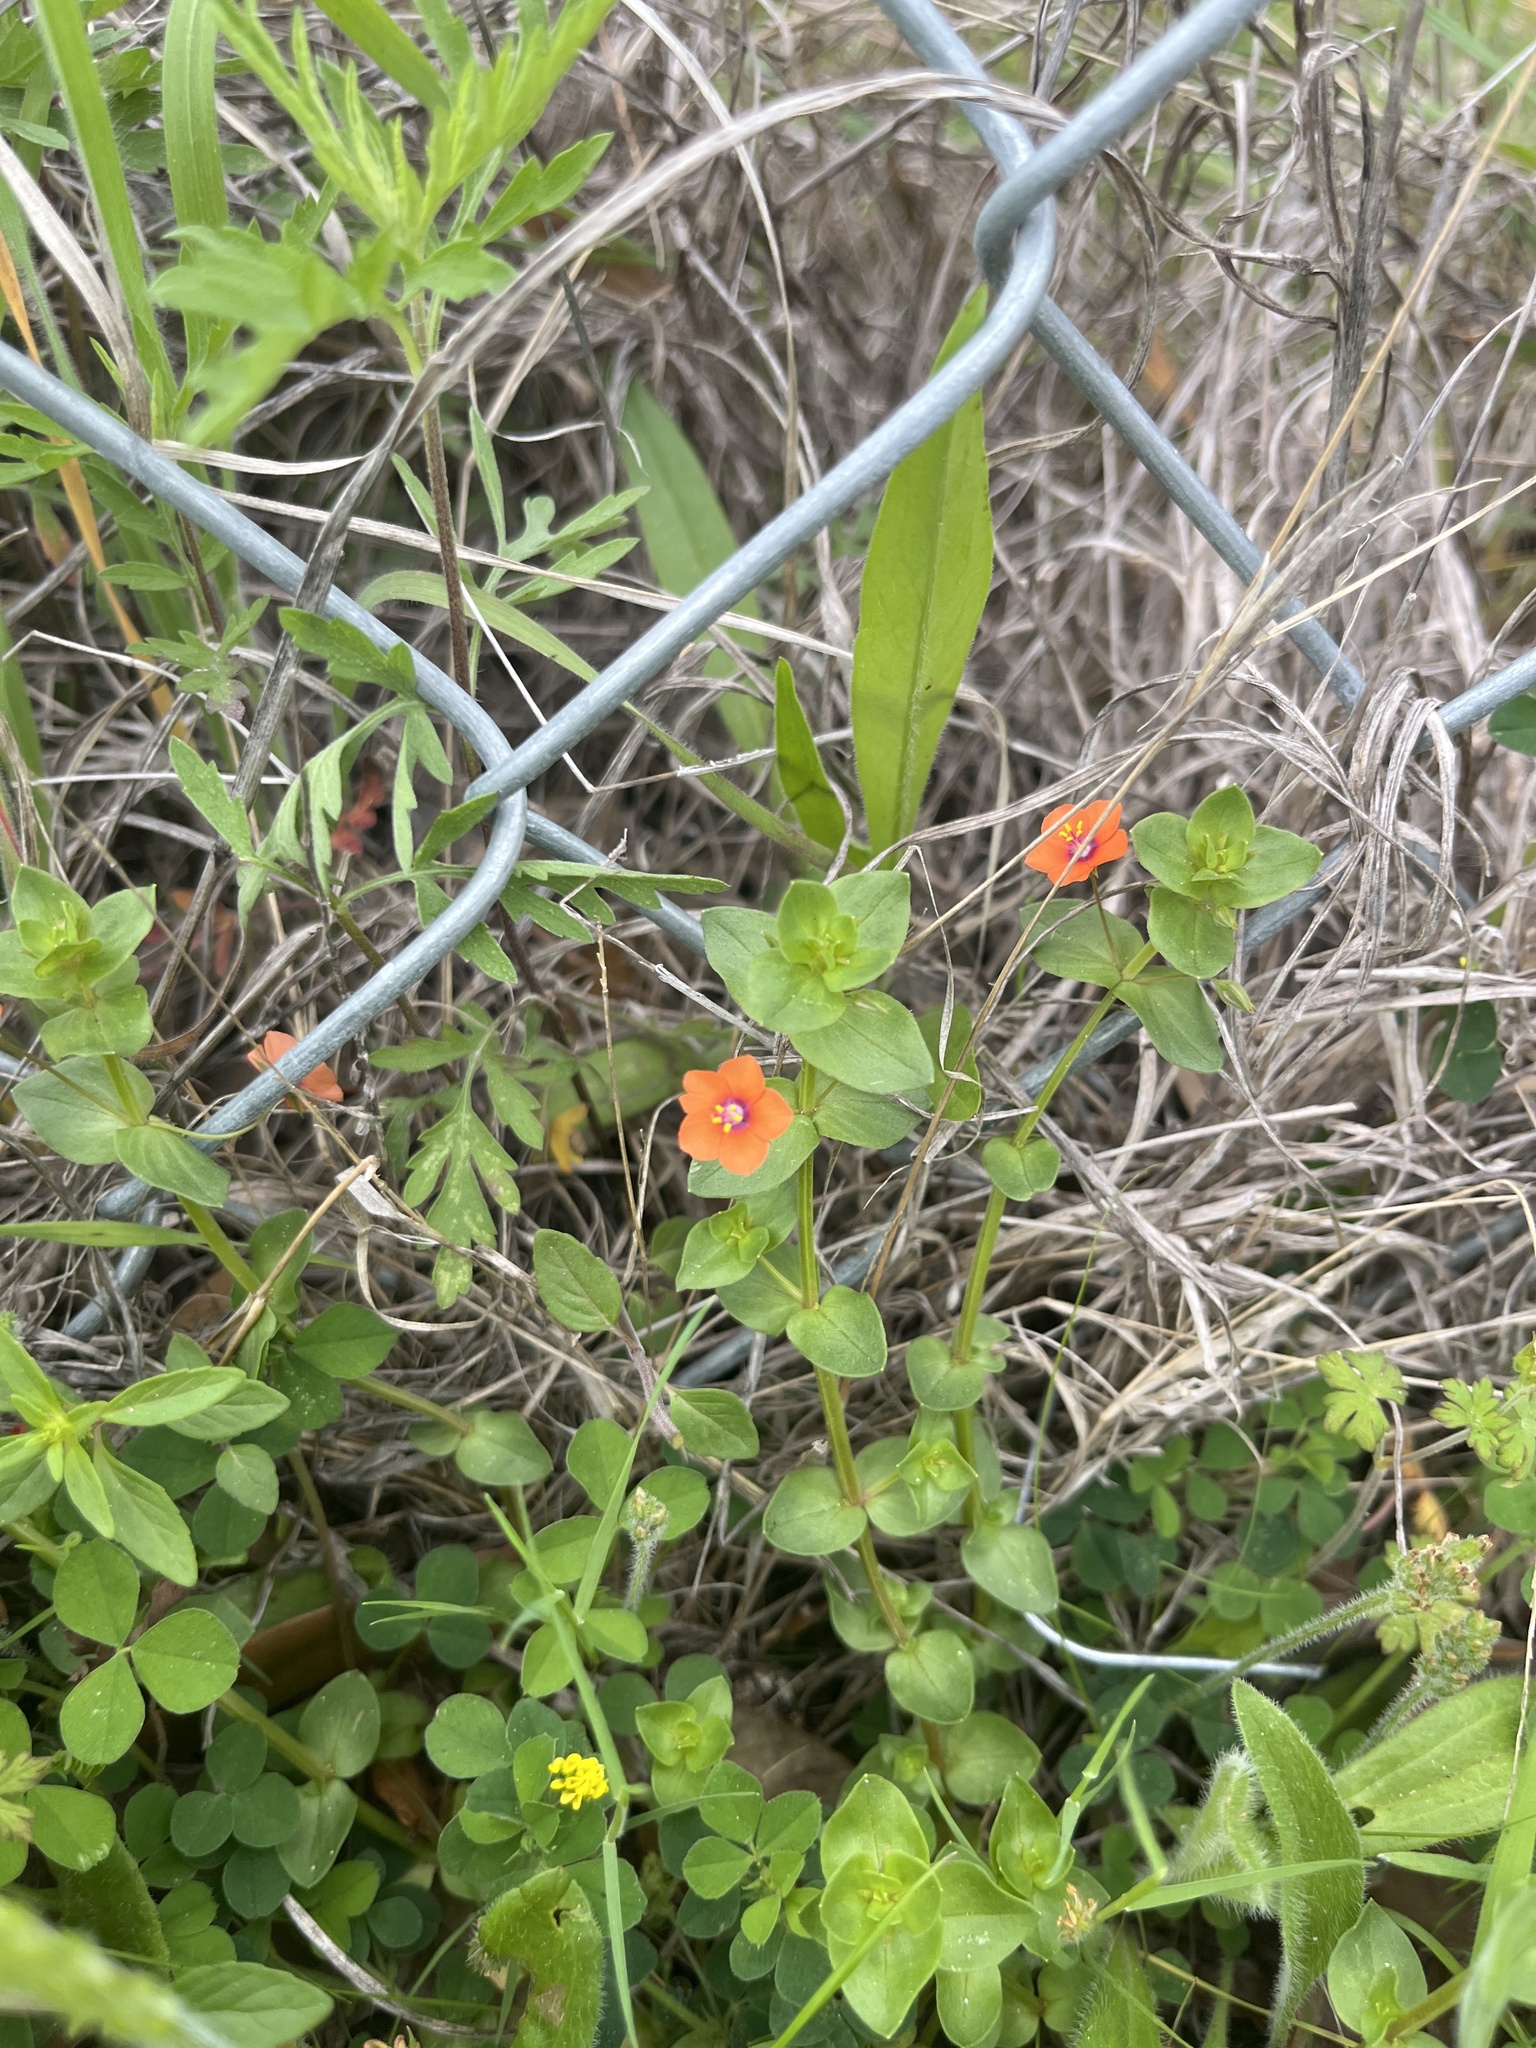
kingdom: Plantae
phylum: Tracheophyta
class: Magnoliopsida
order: Ericales
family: Primulaceae
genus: Lysimachia
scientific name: Lysimachia arvensis
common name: Scarlet pimpernel
